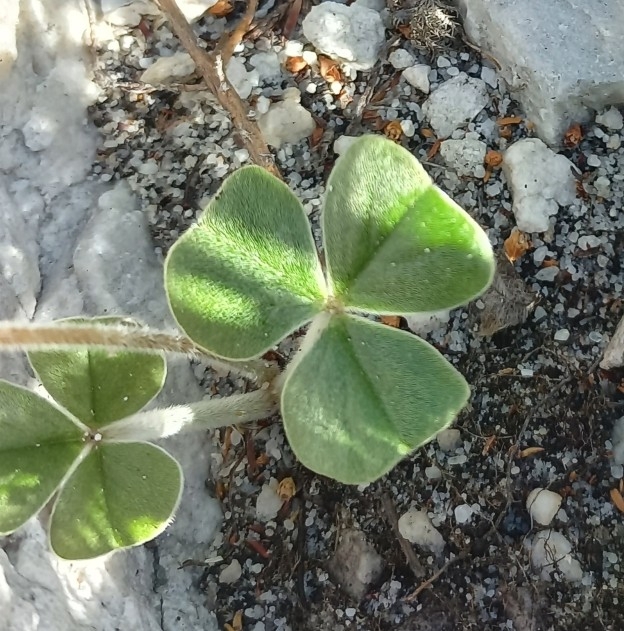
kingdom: Plantae
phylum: Tracheophyta
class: Magnoliopsida
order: Oxalidales
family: Oxalidaceae
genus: Oxalis
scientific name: Oxalis truncatula
